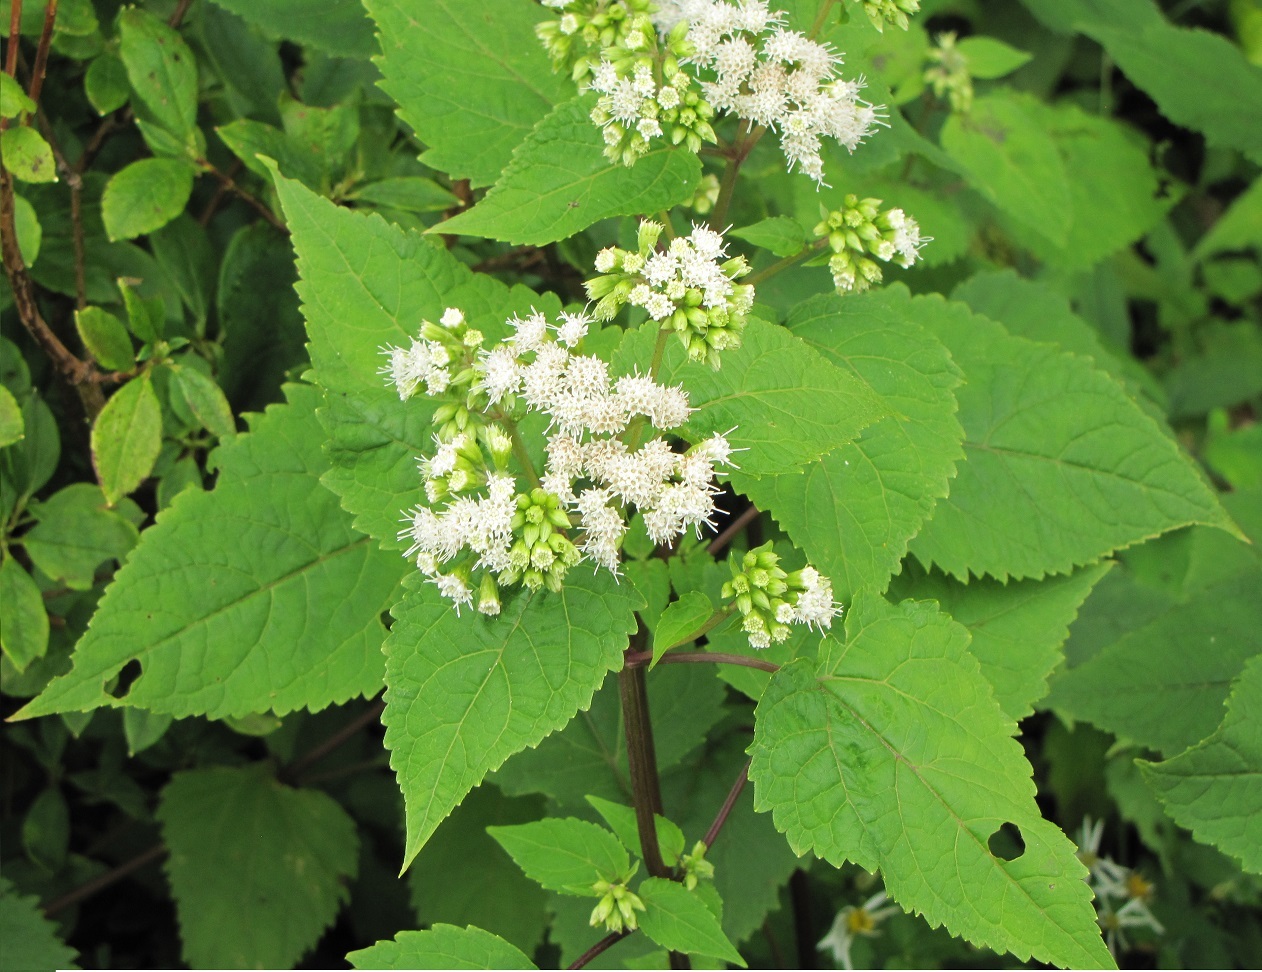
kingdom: Plantae
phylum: Tracheophyta
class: Magnoliopsida
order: Asterales
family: Asteraceae
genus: Ageratina
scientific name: Ageratina altissima
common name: White snakeroot
